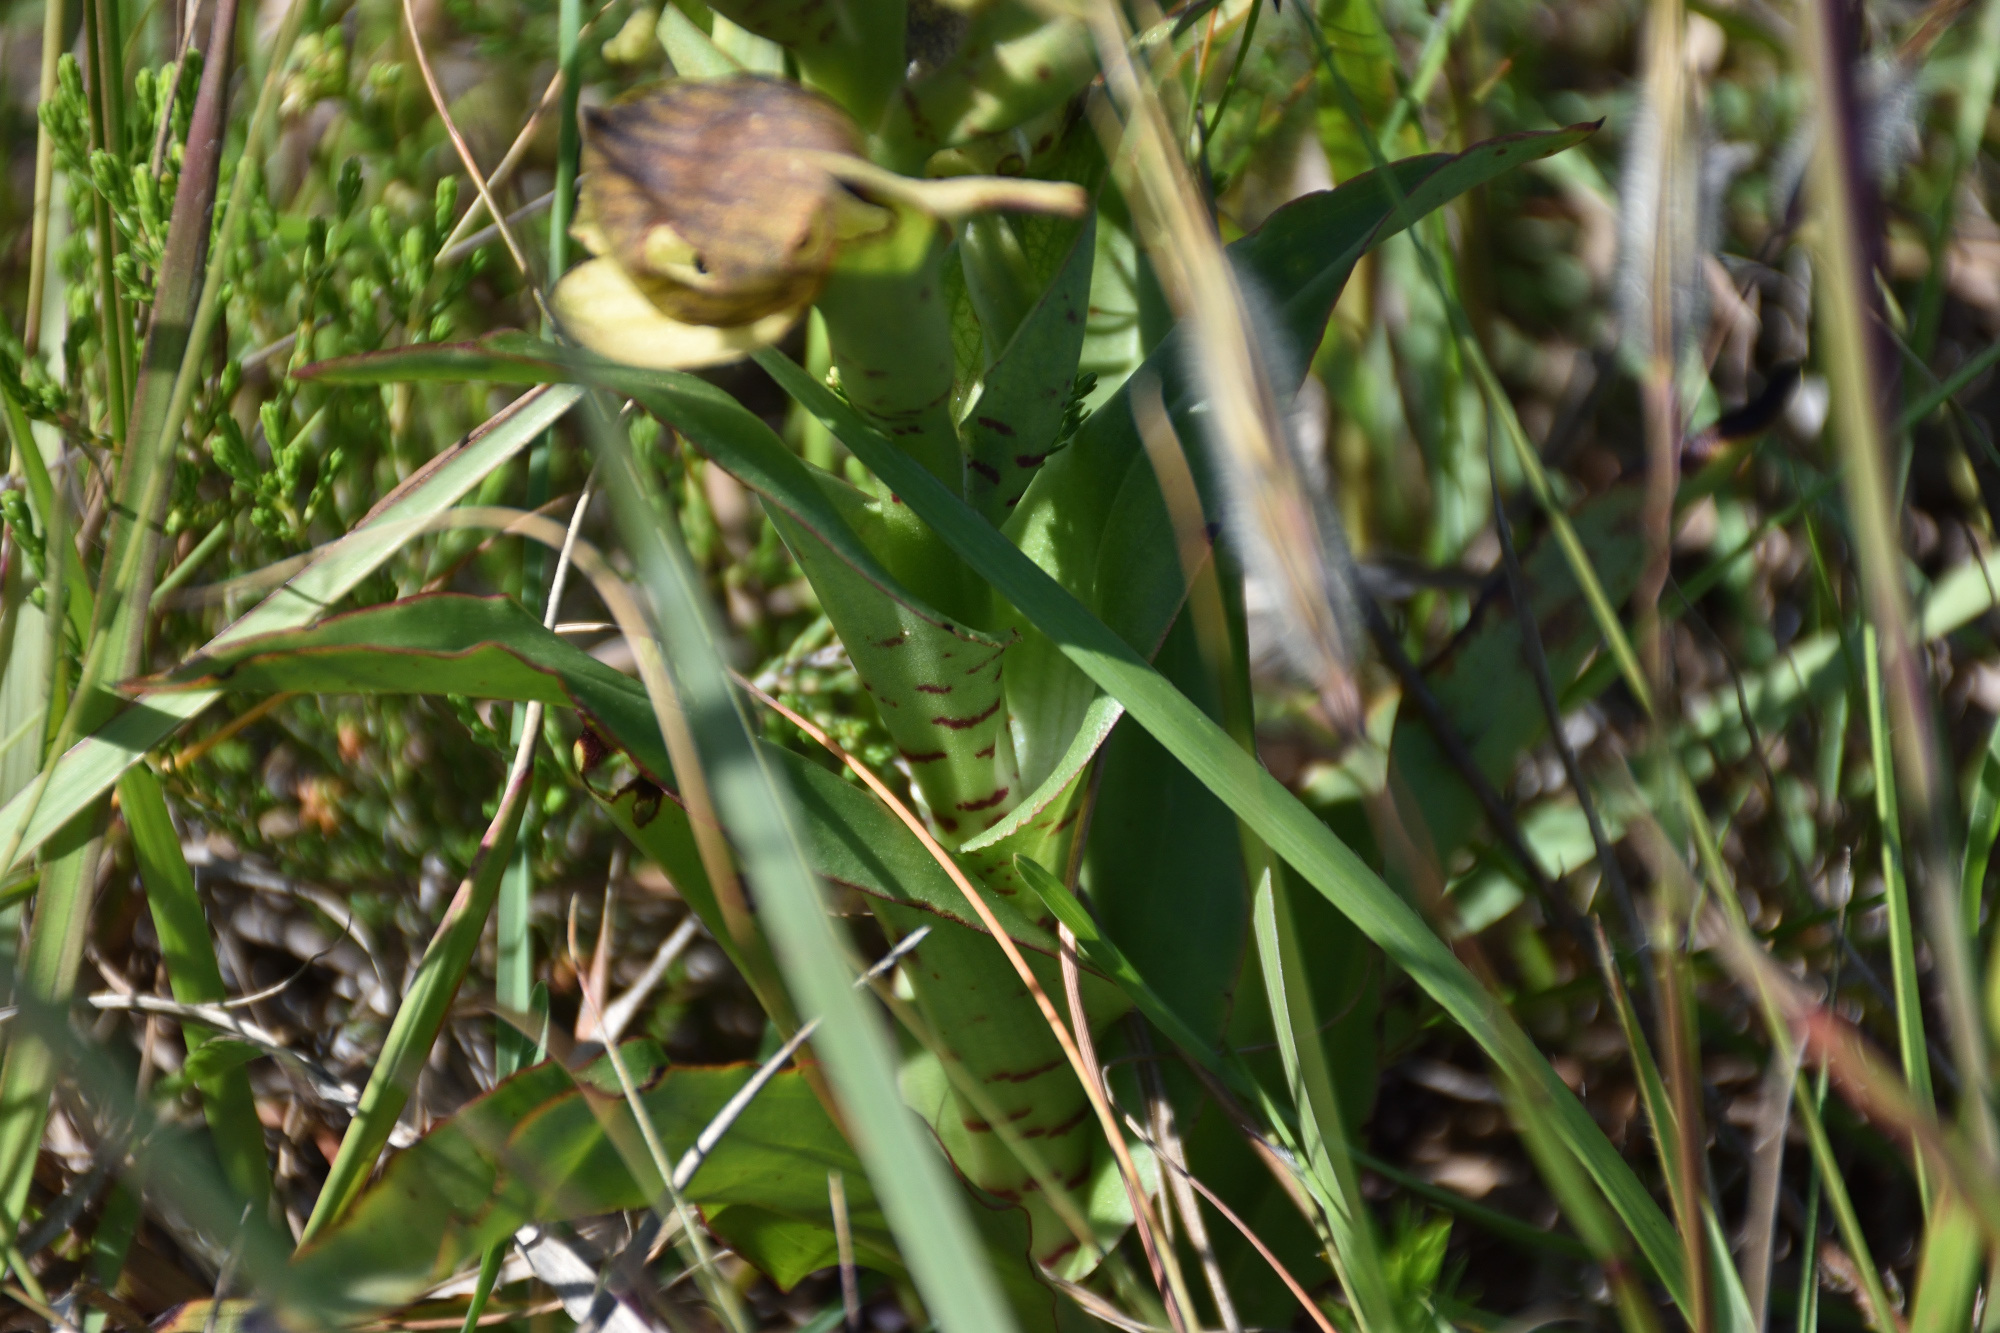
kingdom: Plantae
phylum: Tracheophyta
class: Liliopsida
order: Asparagales
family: Orchidaceae
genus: Disa
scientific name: Disa cornuta
